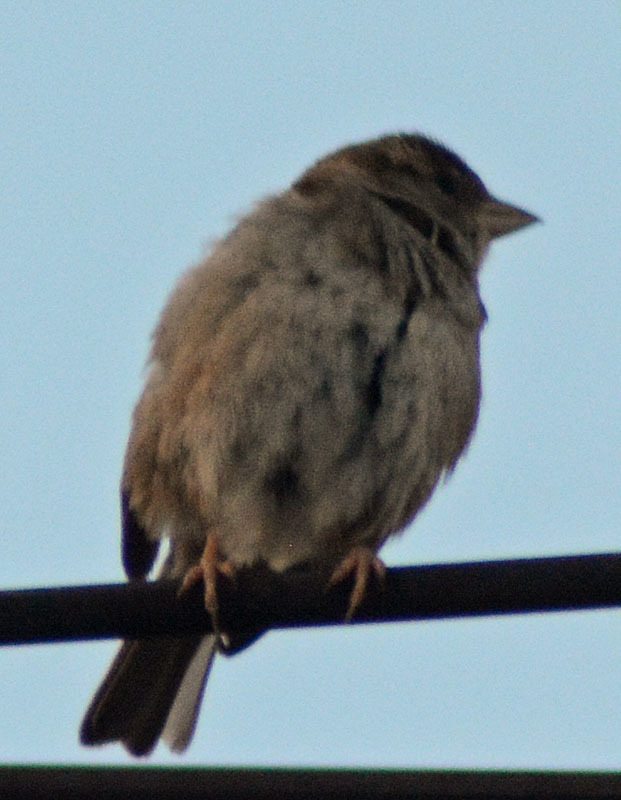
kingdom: Animalia
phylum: Chordata
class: Aves
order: Passeriformes
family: Passeridae
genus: Passer
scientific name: Passer domesticus
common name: House sparrow
